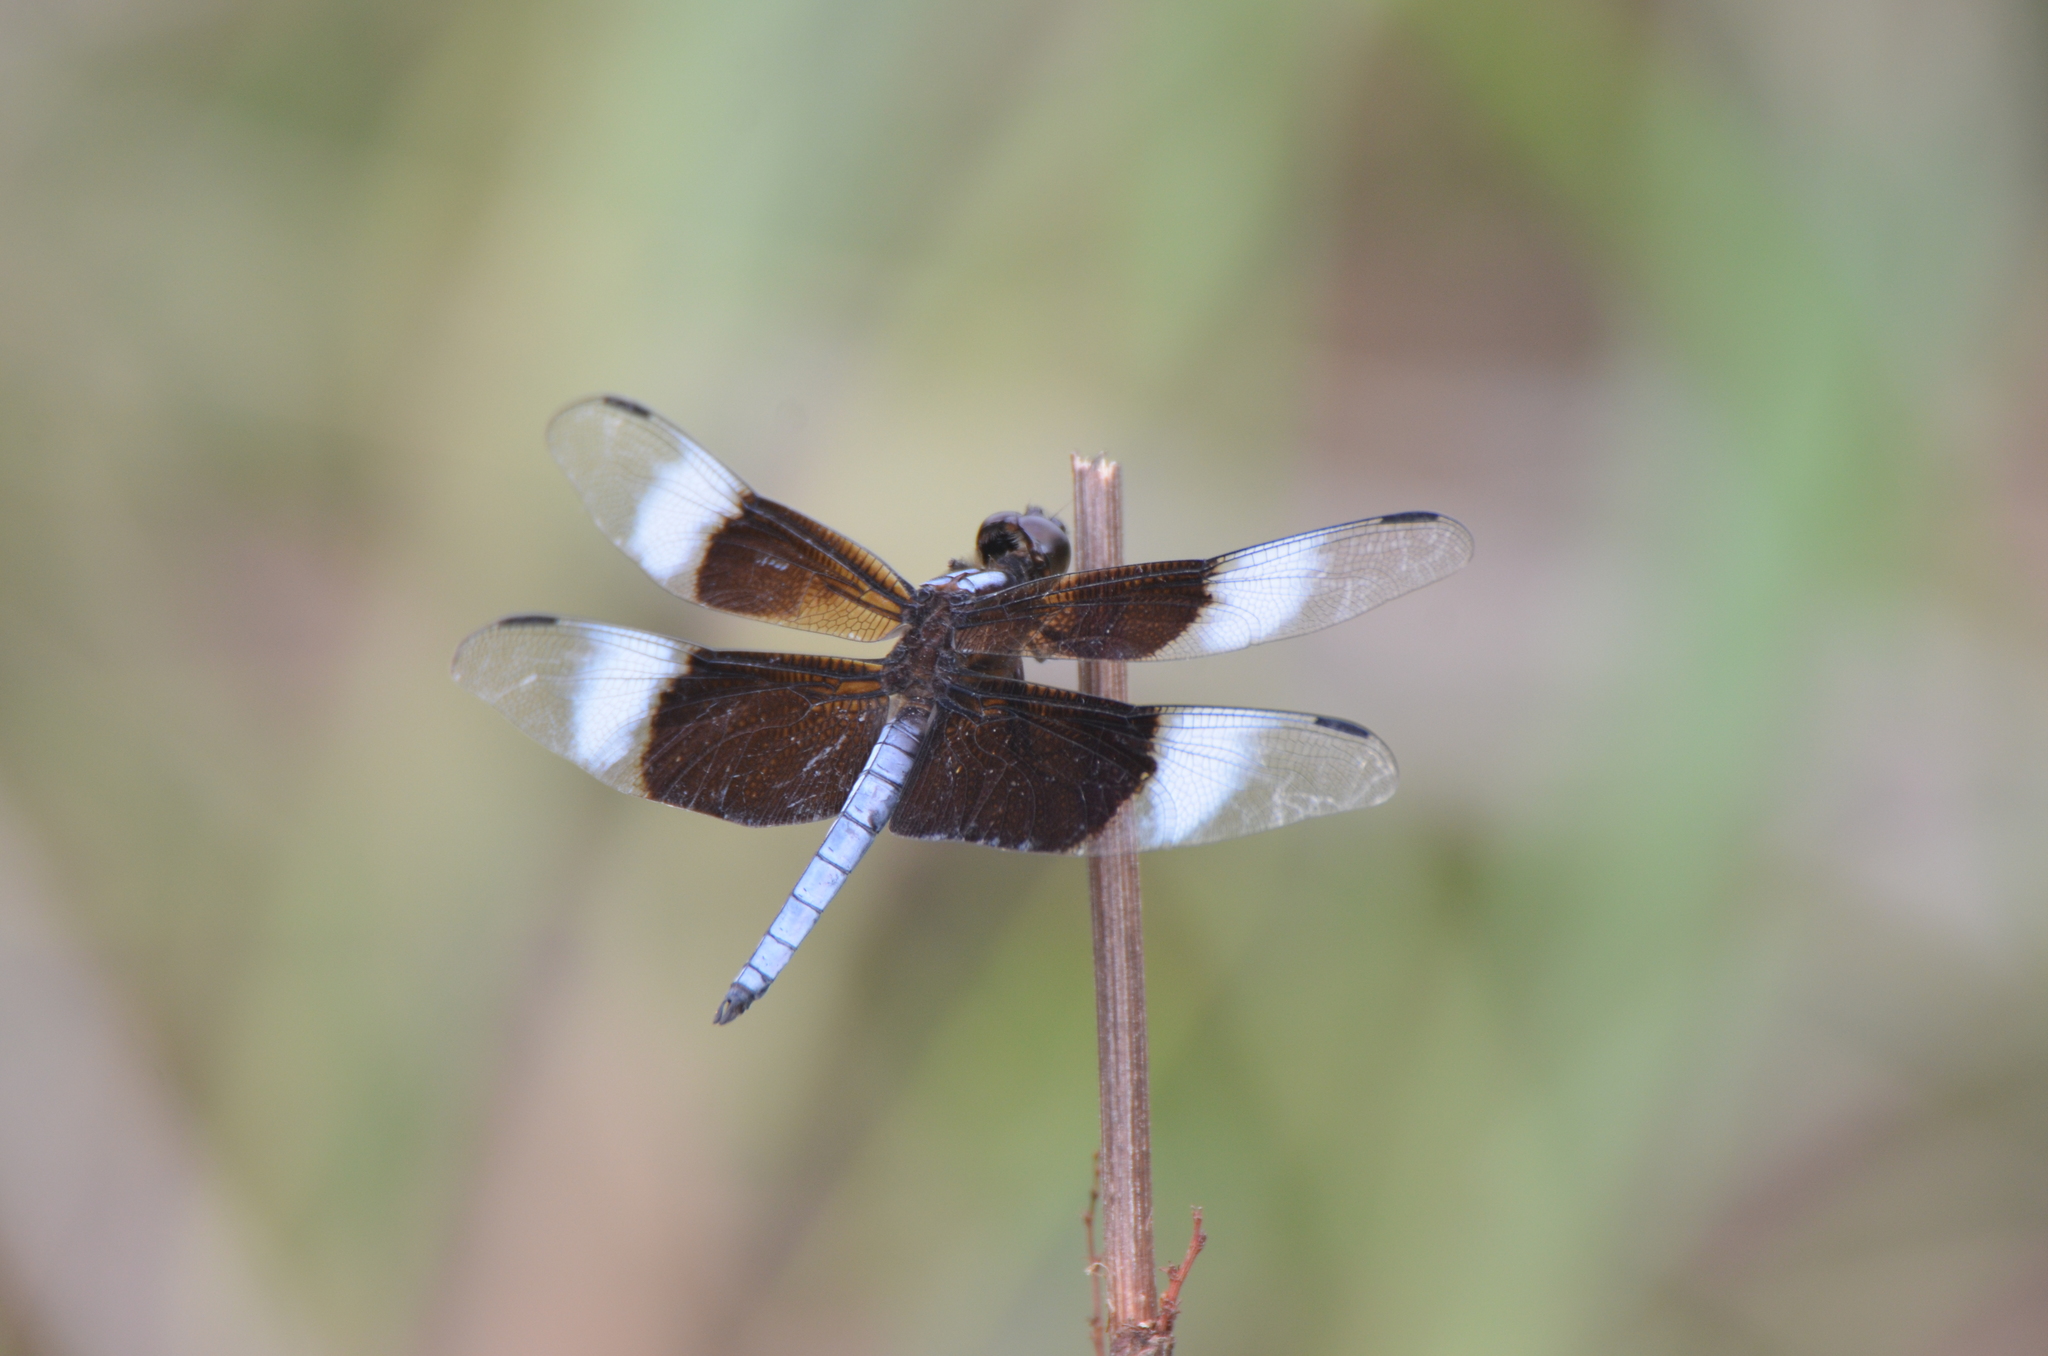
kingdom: Animalia
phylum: Arthropoda
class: Insecta
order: Odonata
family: Libellulidae
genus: Libellula
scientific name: Libellula luctuosa
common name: Widow skimmer
